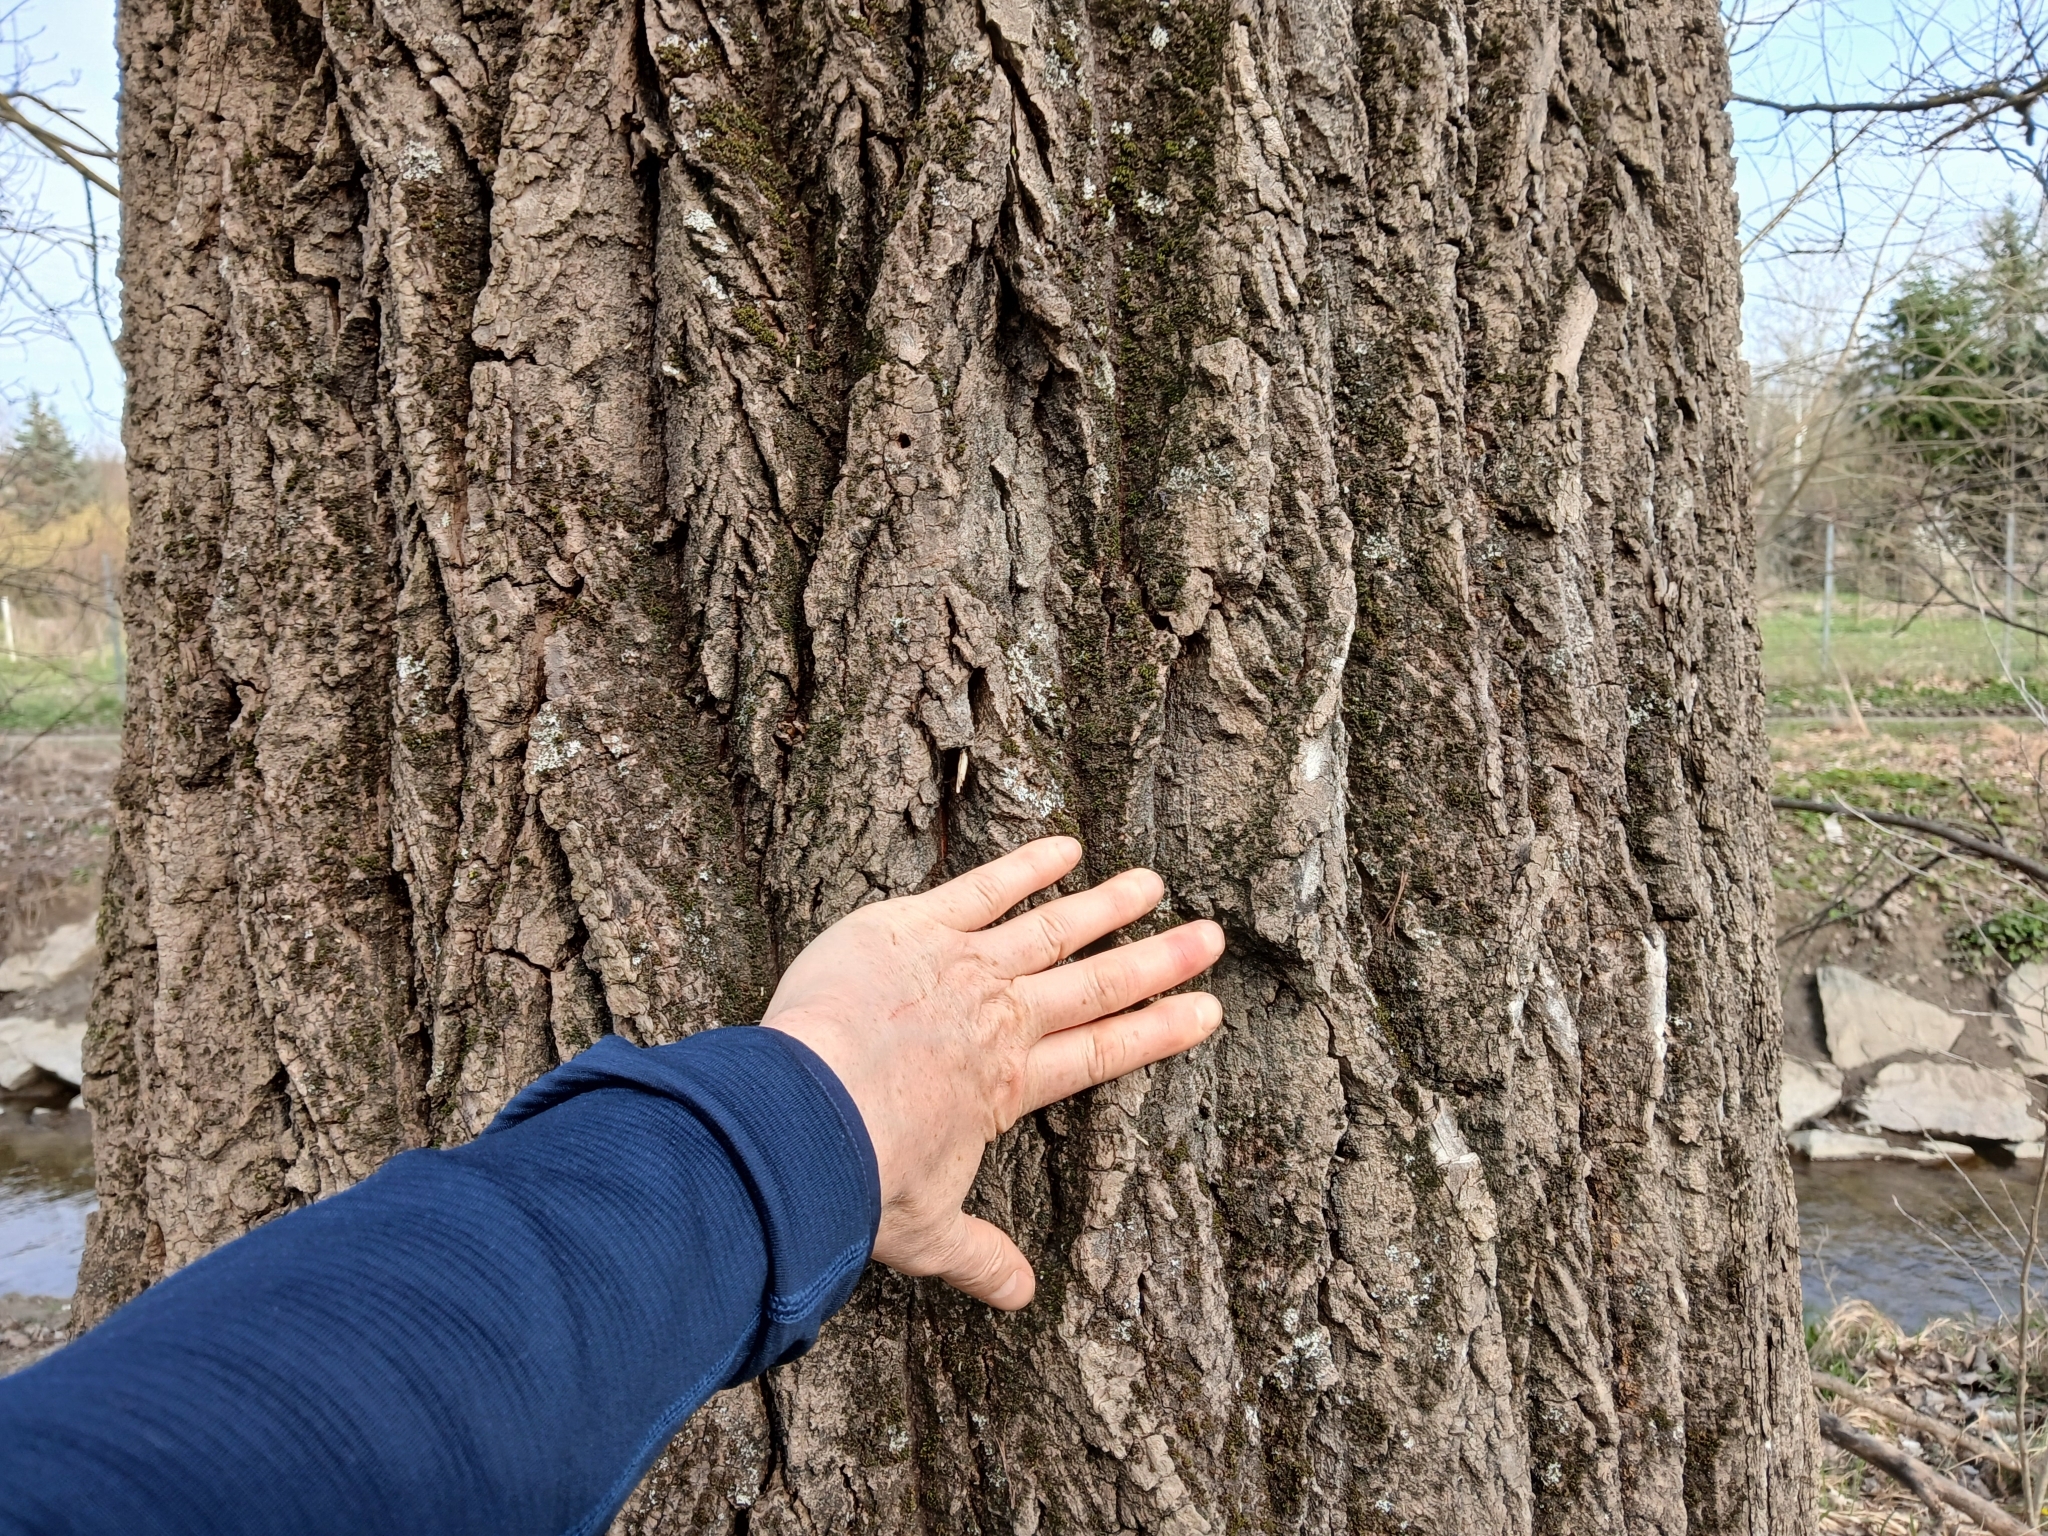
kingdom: Plantae
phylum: Tracheophyta
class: Magnoliopsida
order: Malpighiales
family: Salicaceae
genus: Populus
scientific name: Populus alba
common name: White poplar
